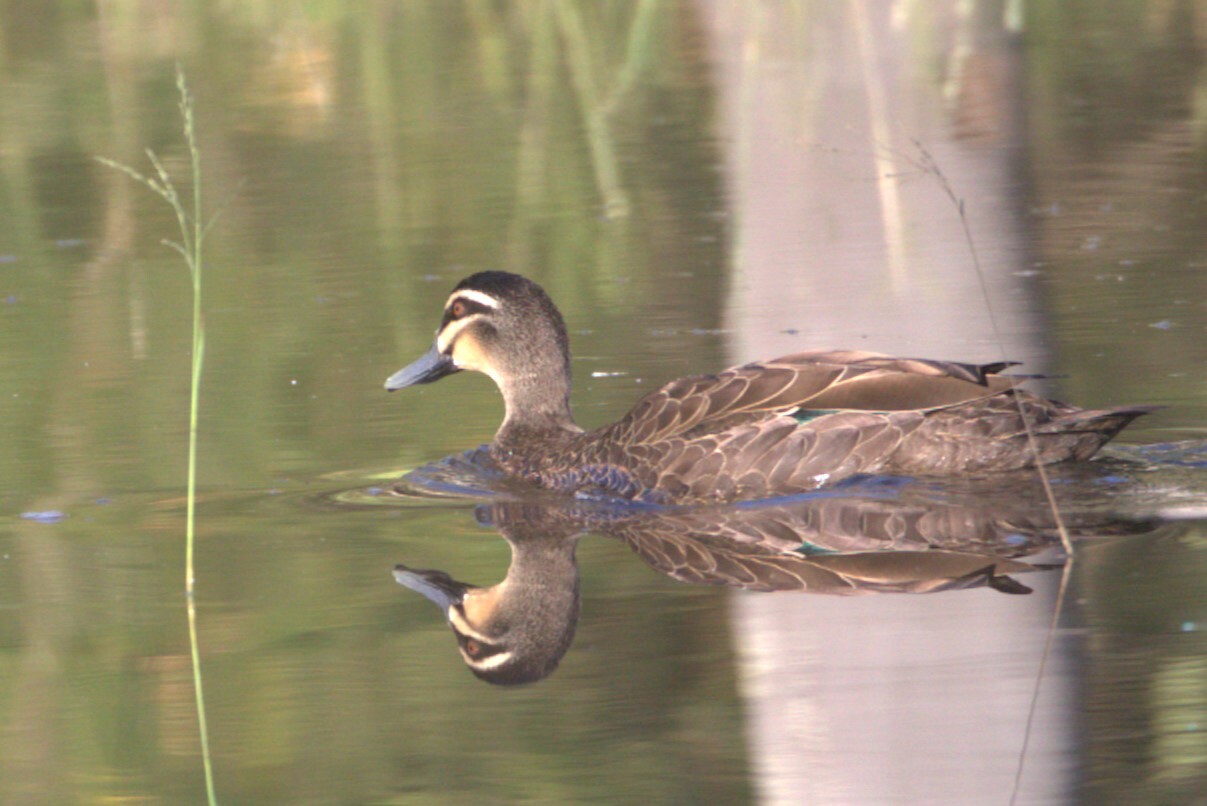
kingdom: Animalia
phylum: Chordata
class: Aves
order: Anseriformes
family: Anatidae
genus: Anas
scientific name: Anas superciliosa
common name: Pacific black duck
